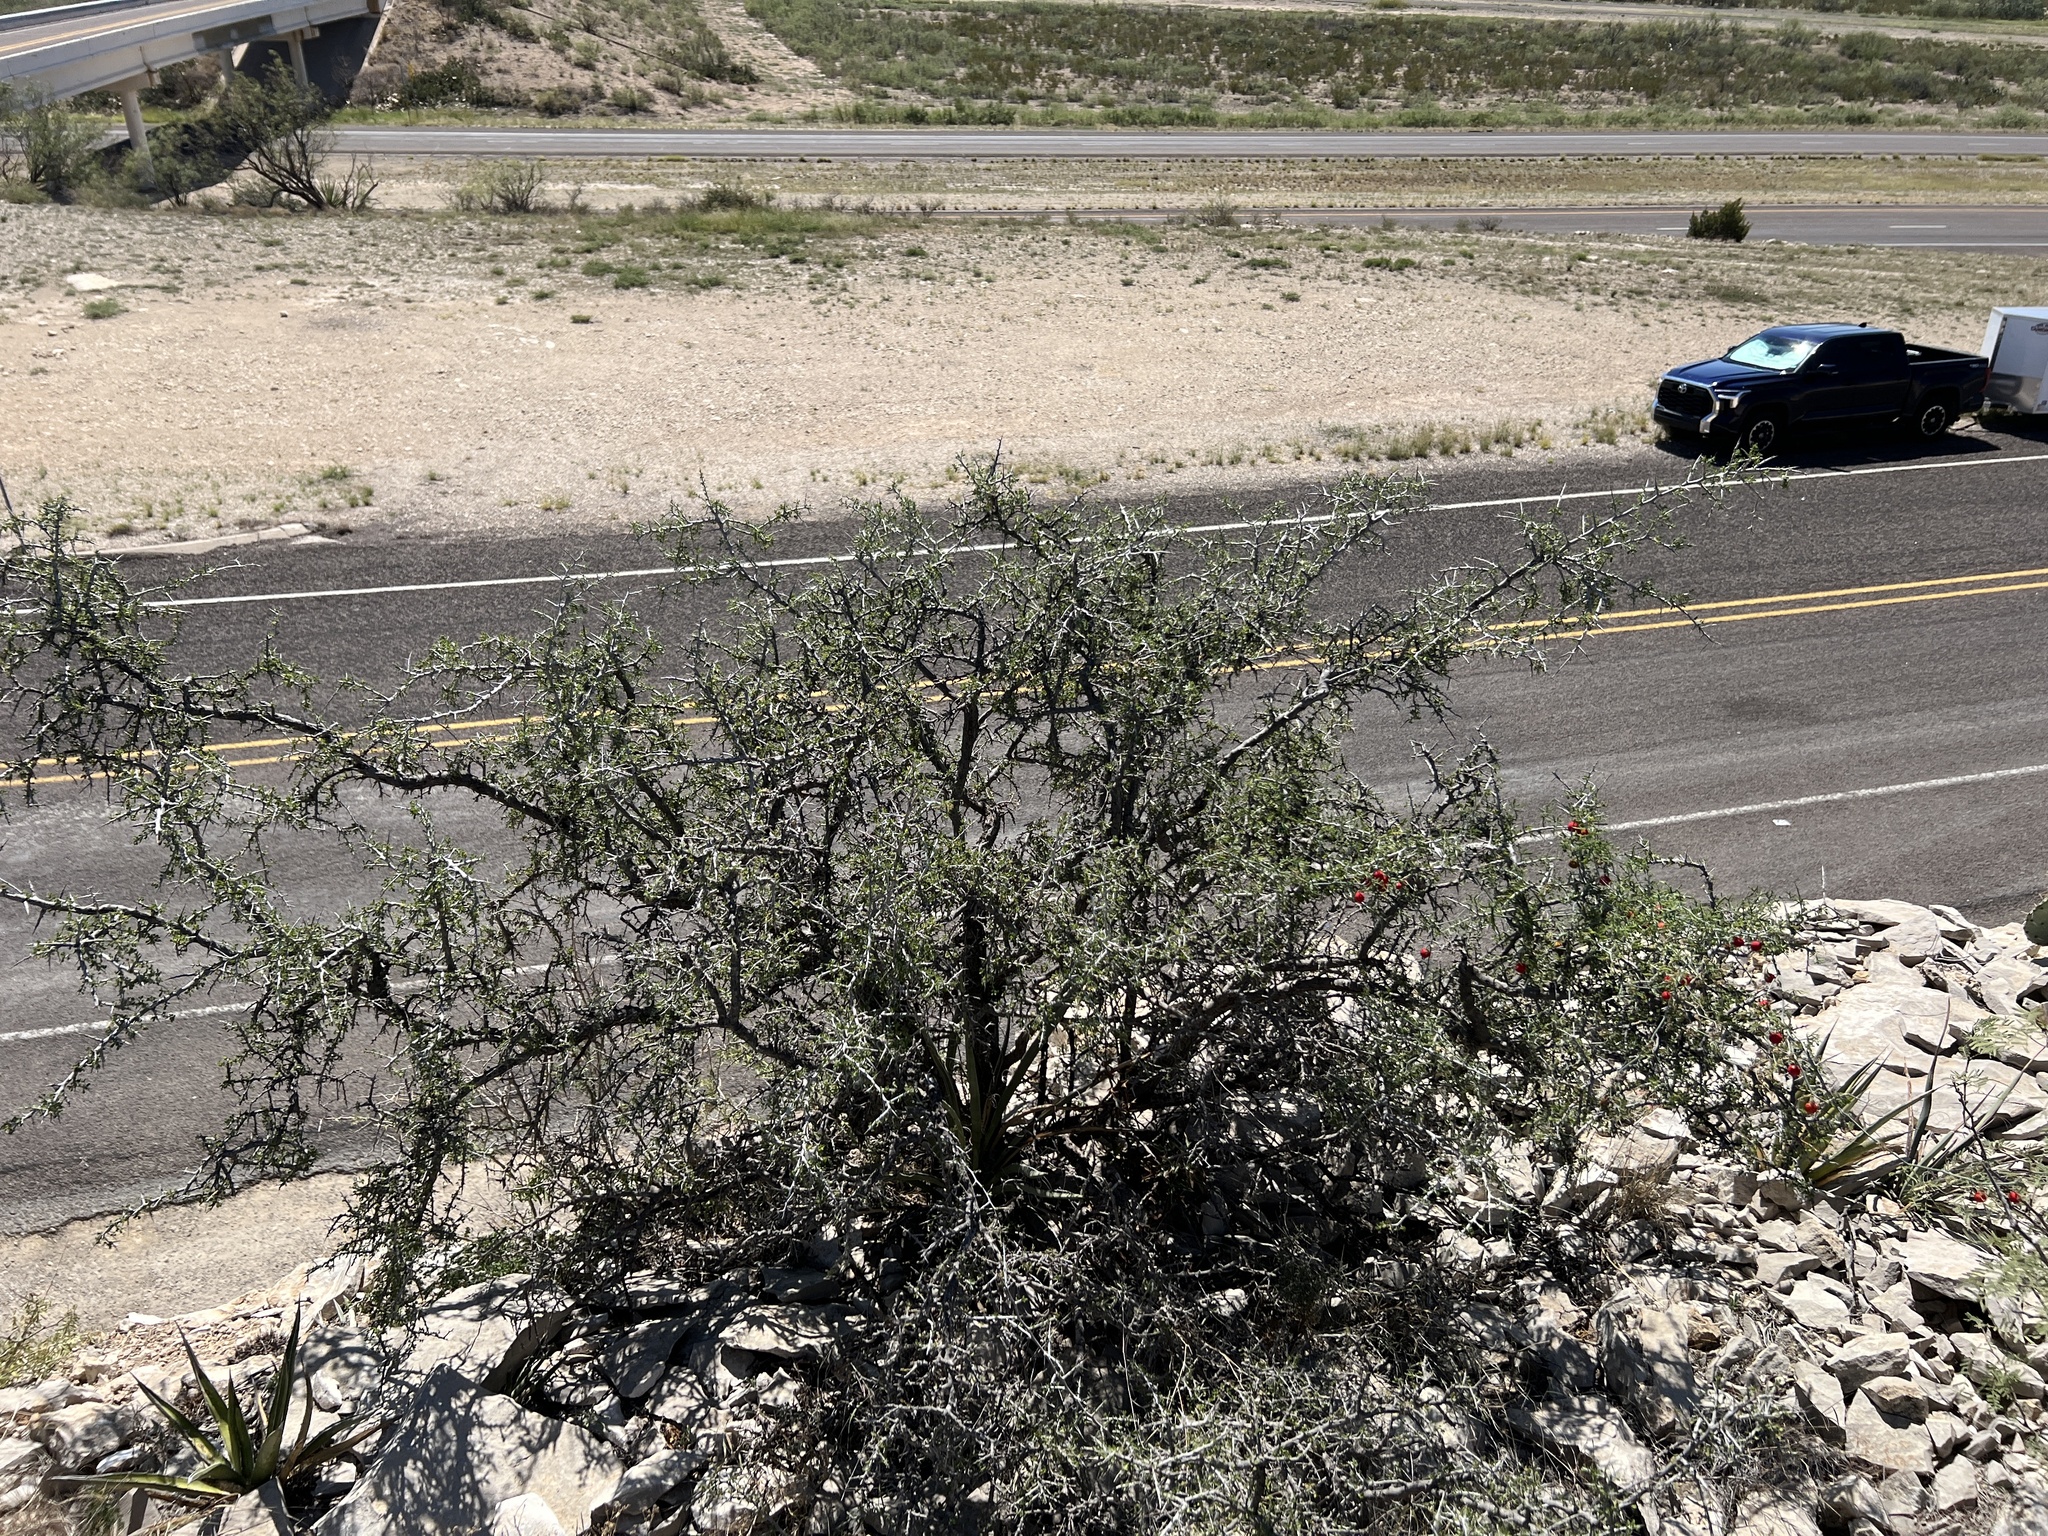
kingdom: Plantae
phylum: Tracheophyta
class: Magnoliopsida
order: Rosales
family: Rhamnaceae
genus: Condalia
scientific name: Condalia viridis
